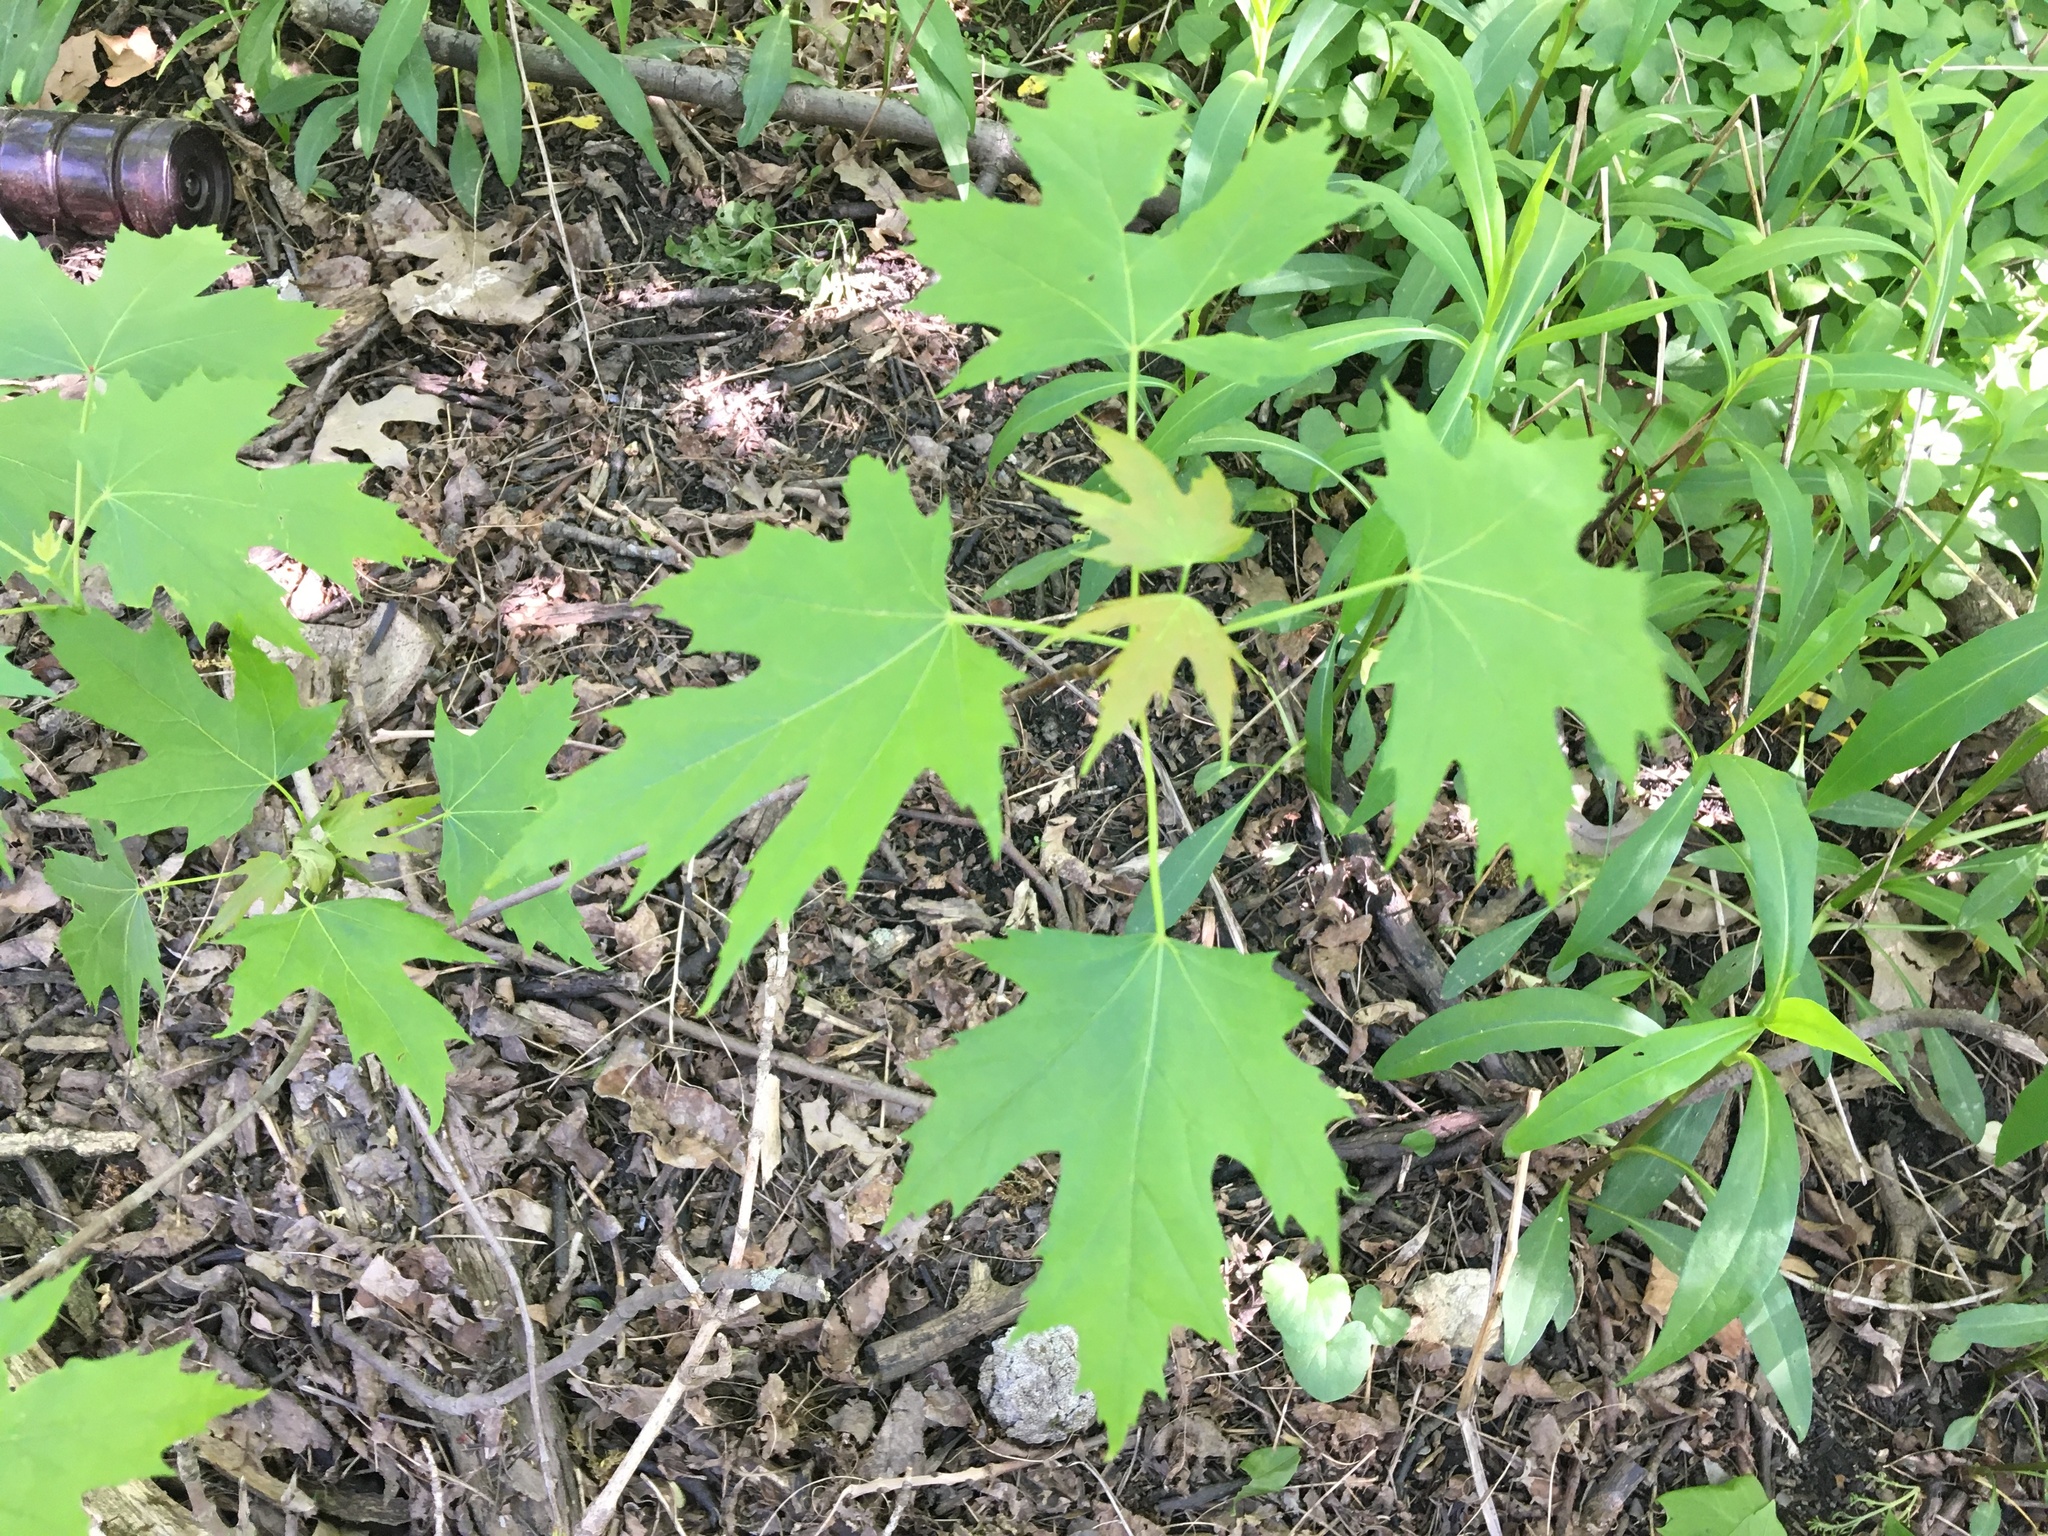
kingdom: Plantae
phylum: Tracheophyta
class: Magnoliopsida
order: Sapindales
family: Sapindaceae
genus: Acer
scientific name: Acer saccharinum
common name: Silver maple
